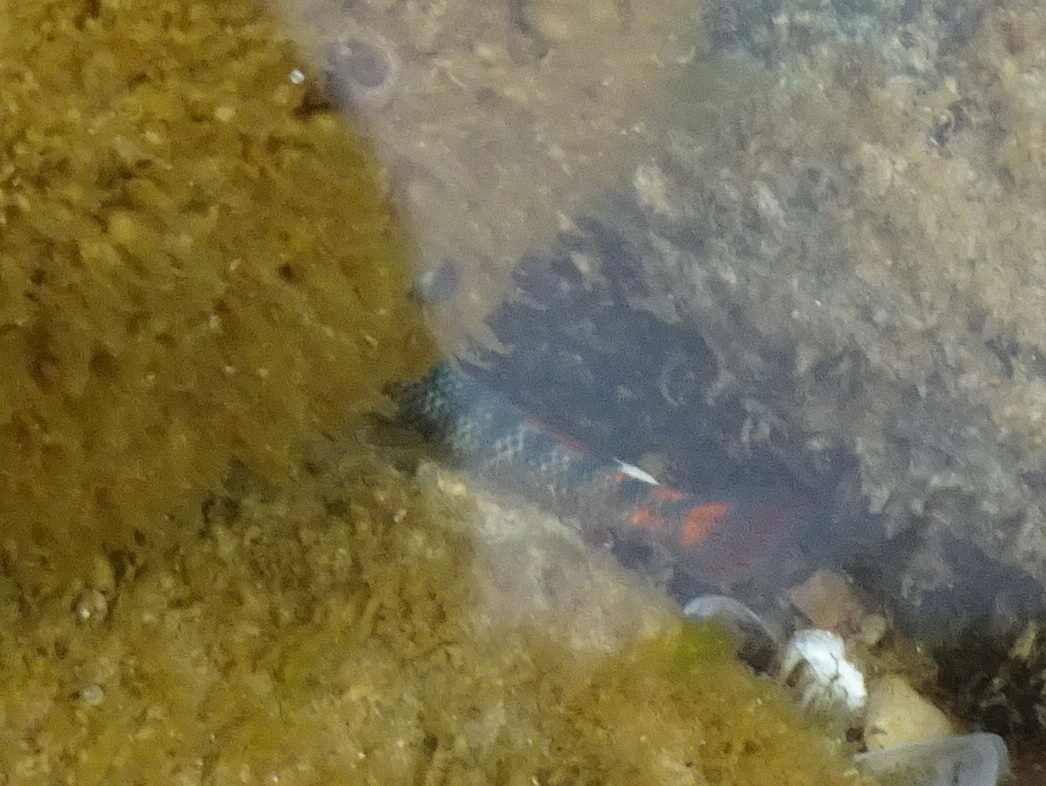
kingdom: Animalia
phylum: Chordata
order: Perciformes
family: Percidae
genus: Etheostoma
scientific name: Etheostoma caeruleum
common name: Rainbow darter
